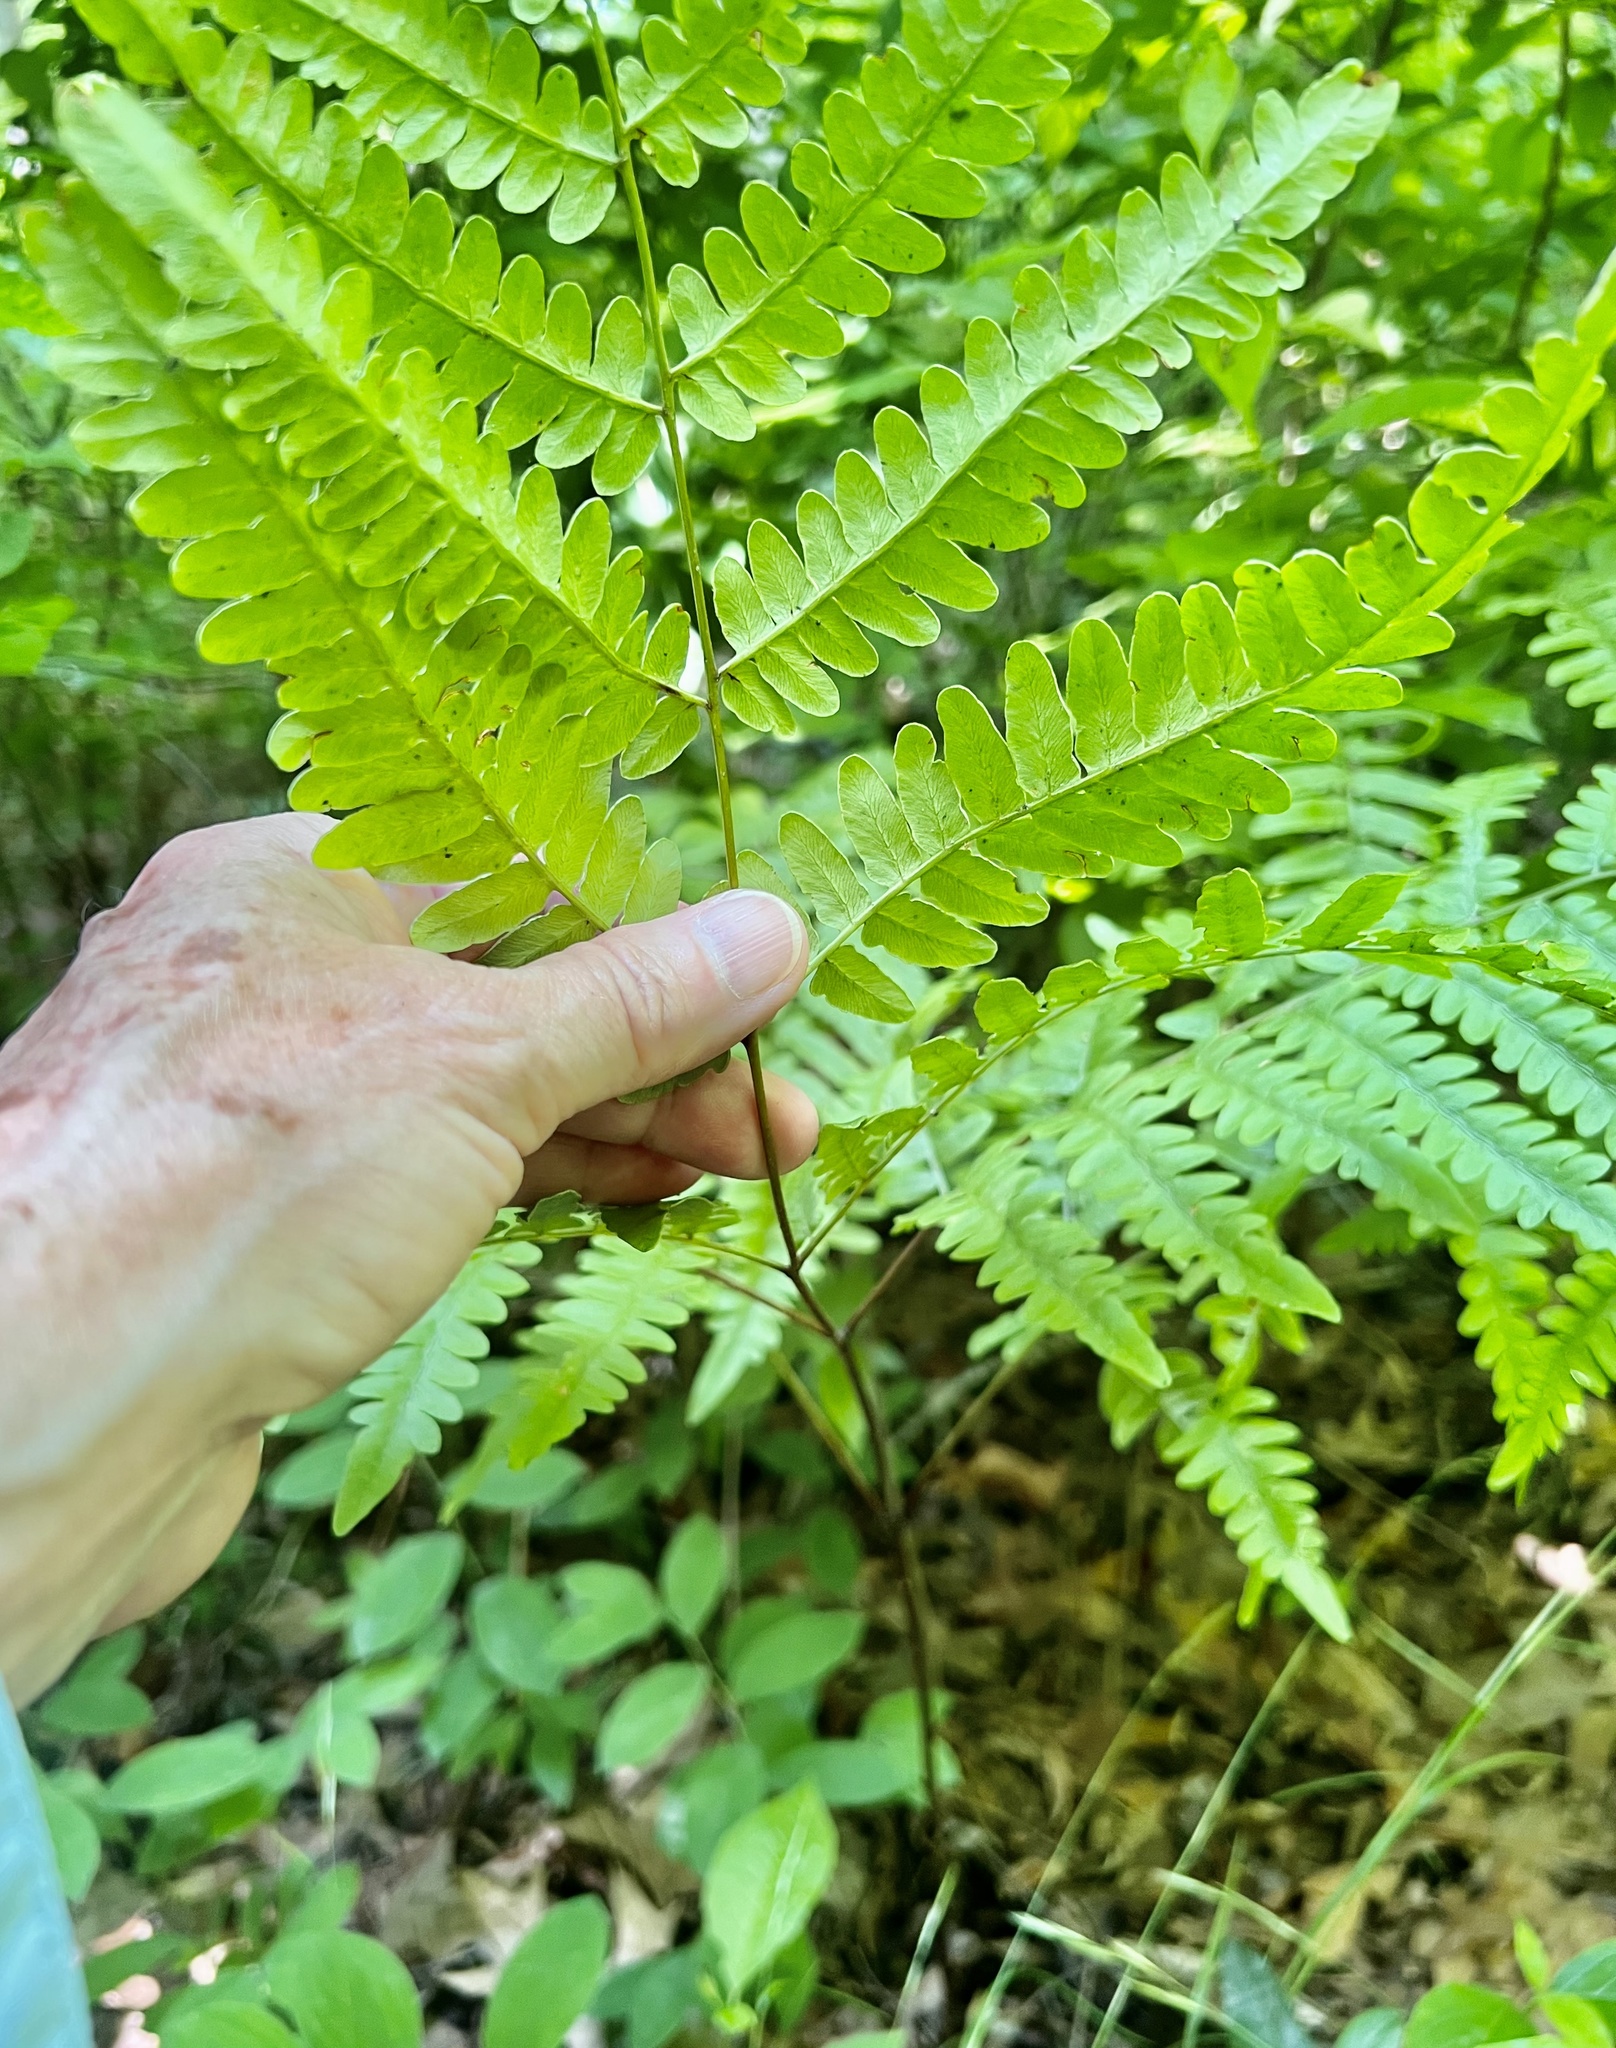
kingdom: Plantae
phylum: Tracheophyta
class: Polypodiopsida
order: Polypodiales
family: Dennstaedtiaceae
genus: Pteridium
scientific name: Pteridium aquilinum
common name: Bracken
